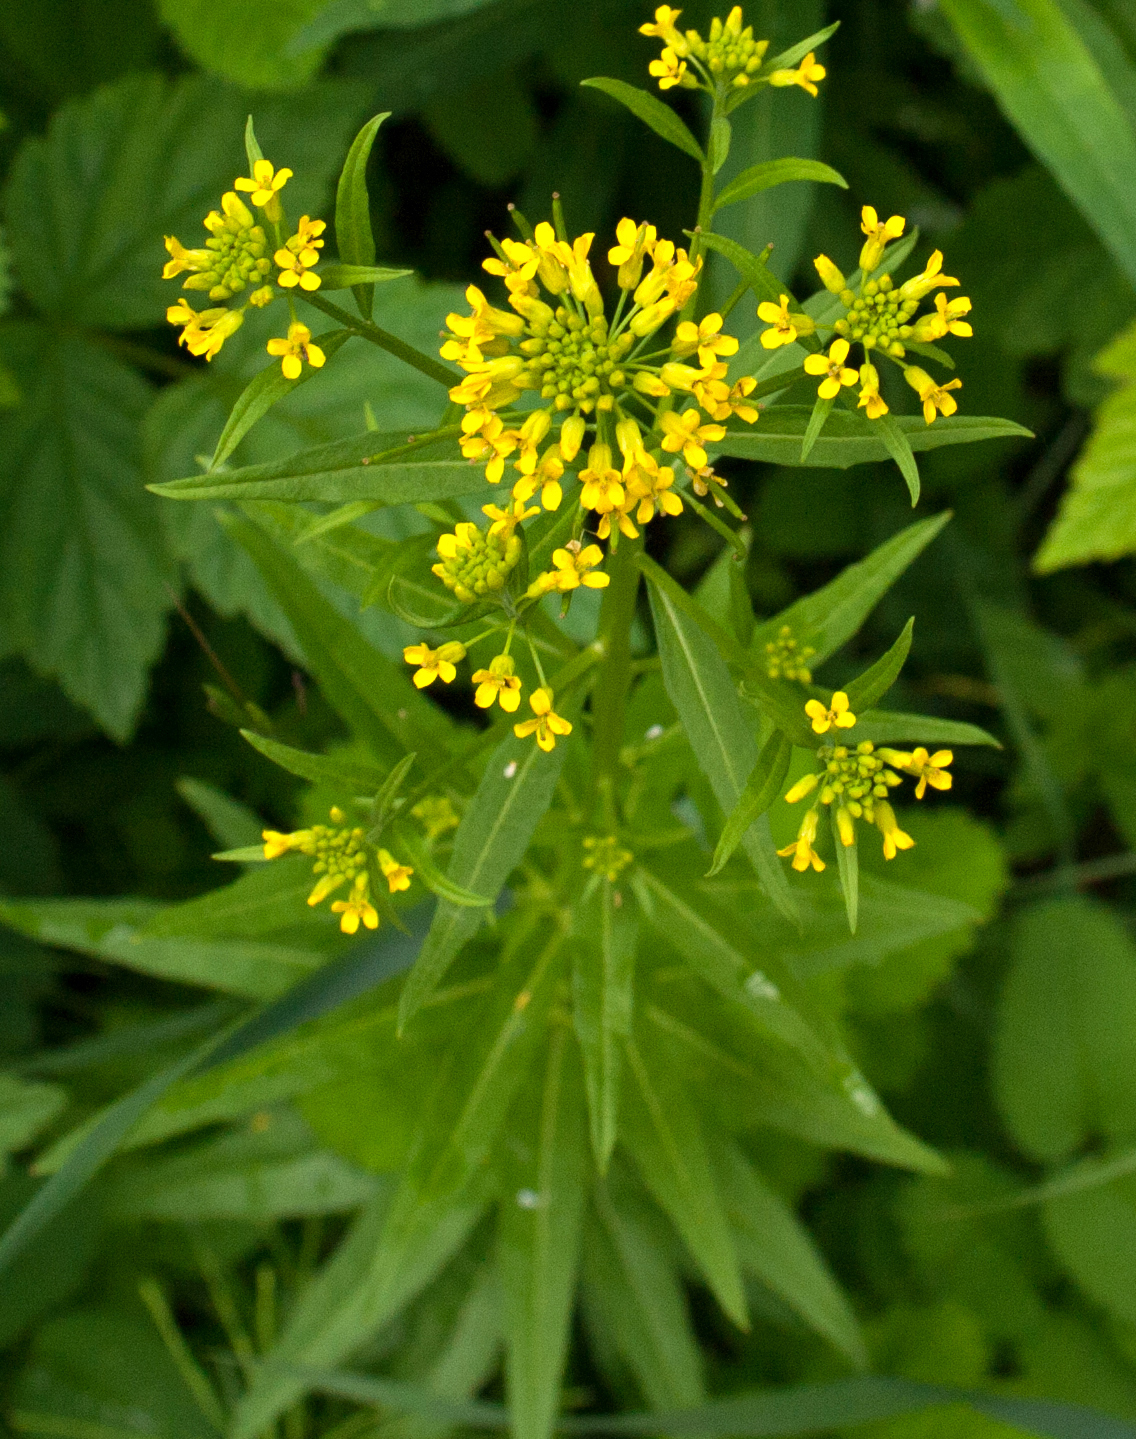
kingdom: Plantae
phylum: Tracheophyta
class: Magnoliopsida
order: Brassicales
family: Brassicaceae
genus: Erysimum
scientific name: Erysimum cheiranthoides
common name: Treacle mustard
